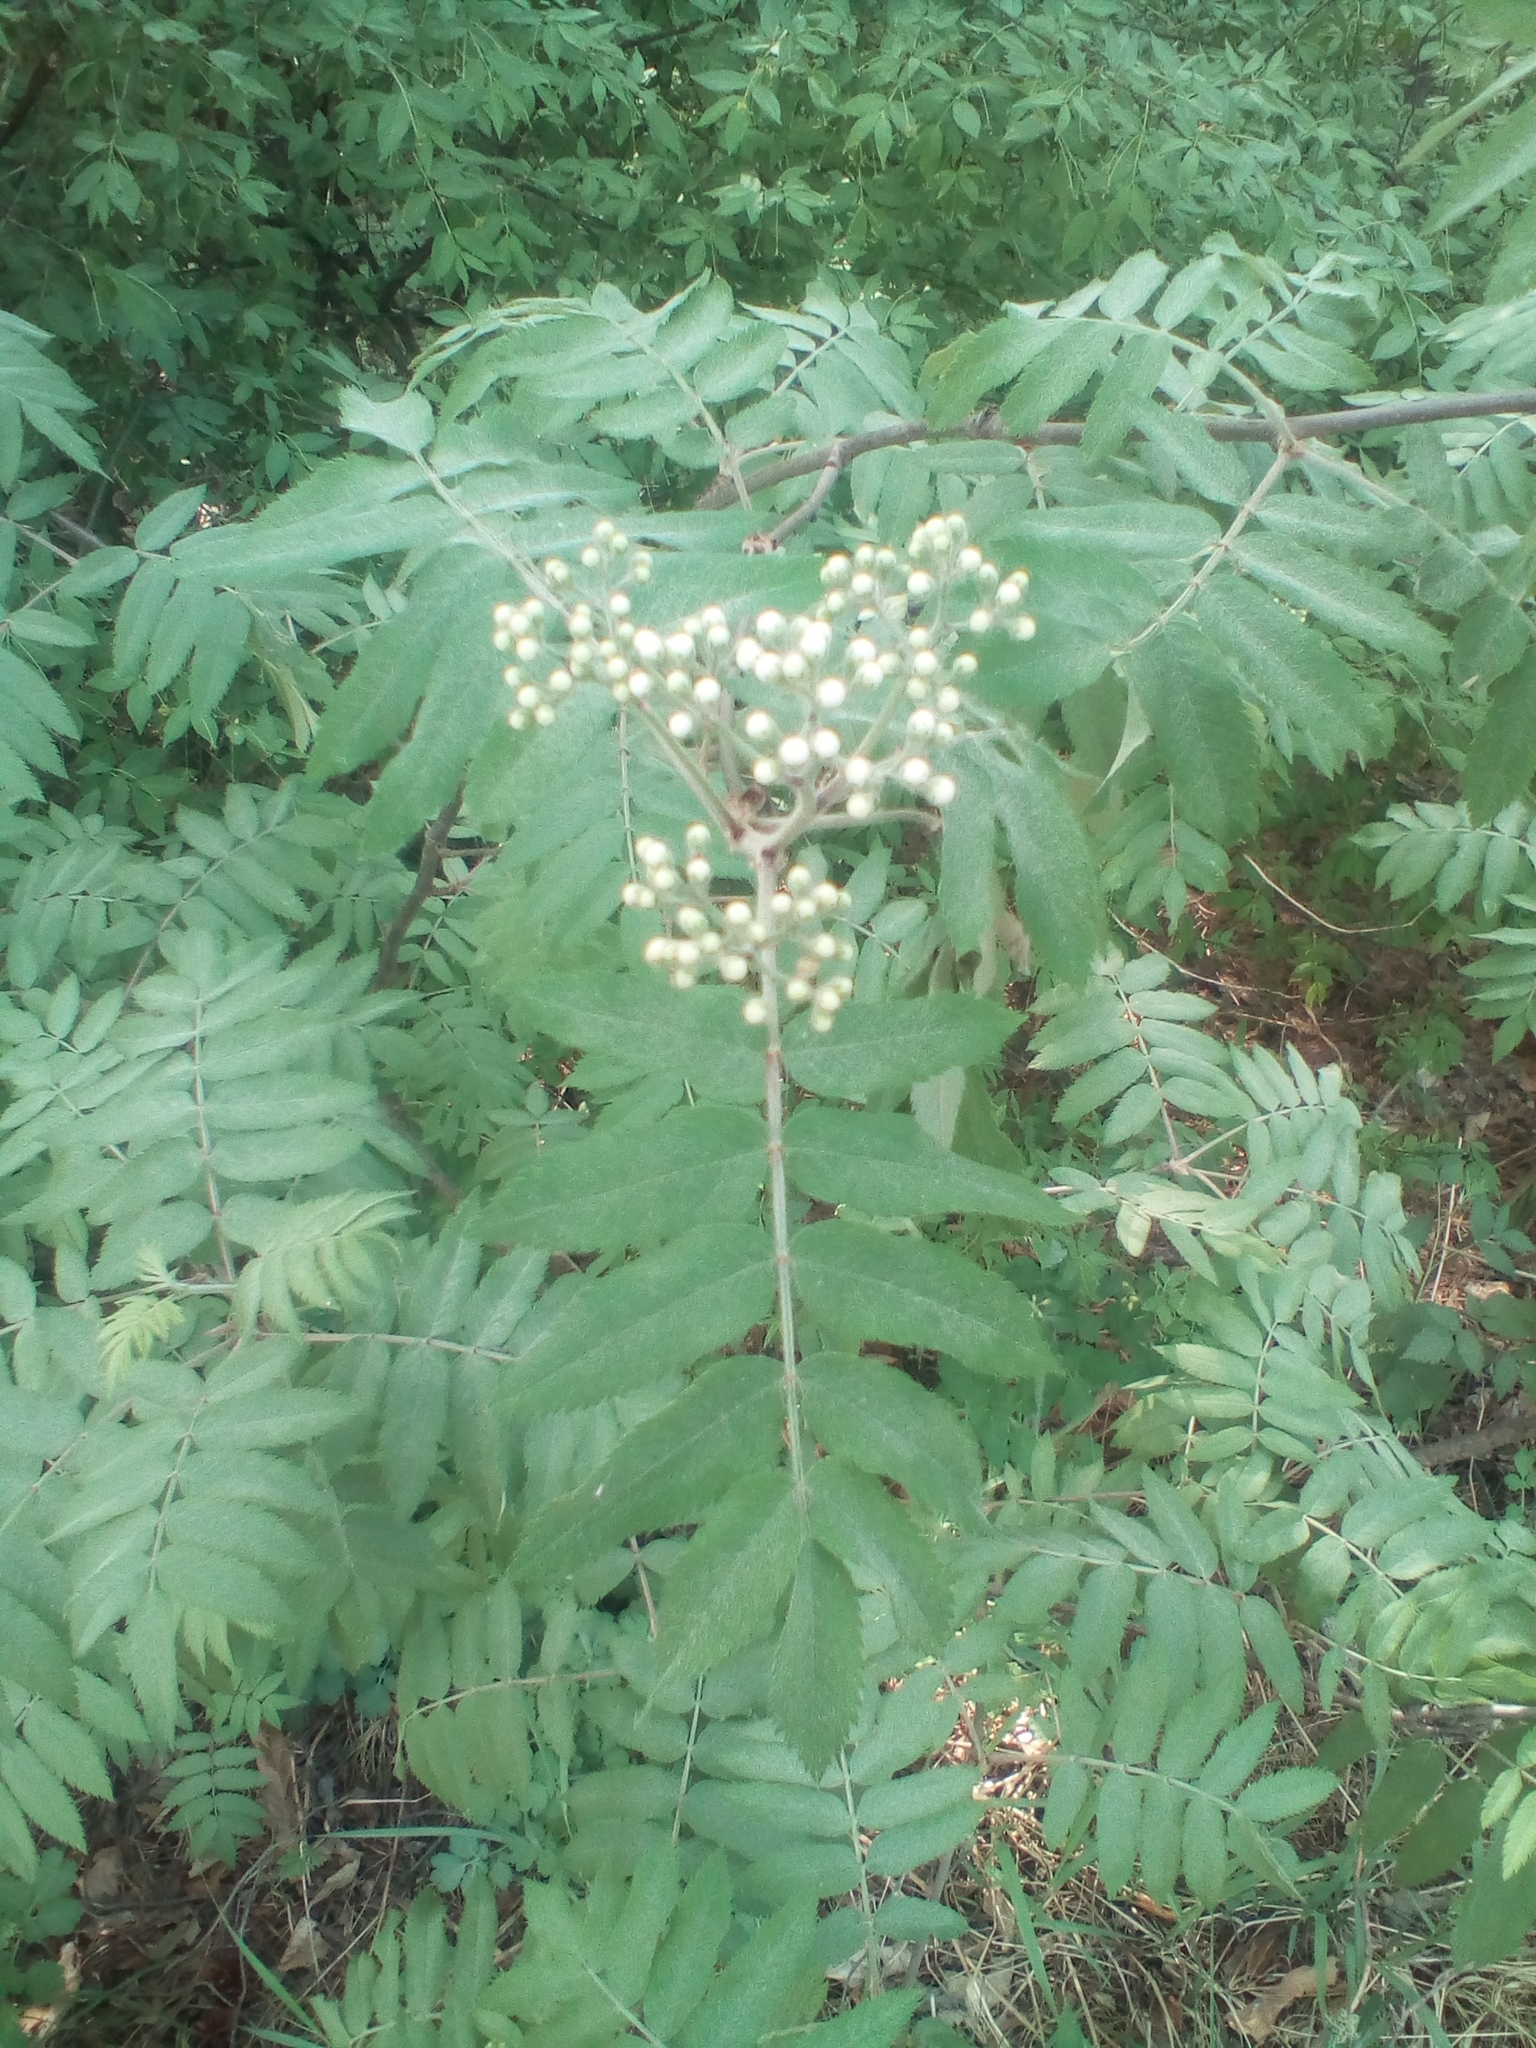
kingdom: Plantae
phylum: Tracheophyta
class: Magnoliopsida
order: Rosales
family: Rosaceae
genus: Sorbus
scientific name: Sorbus aucuparia
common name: Rowan
